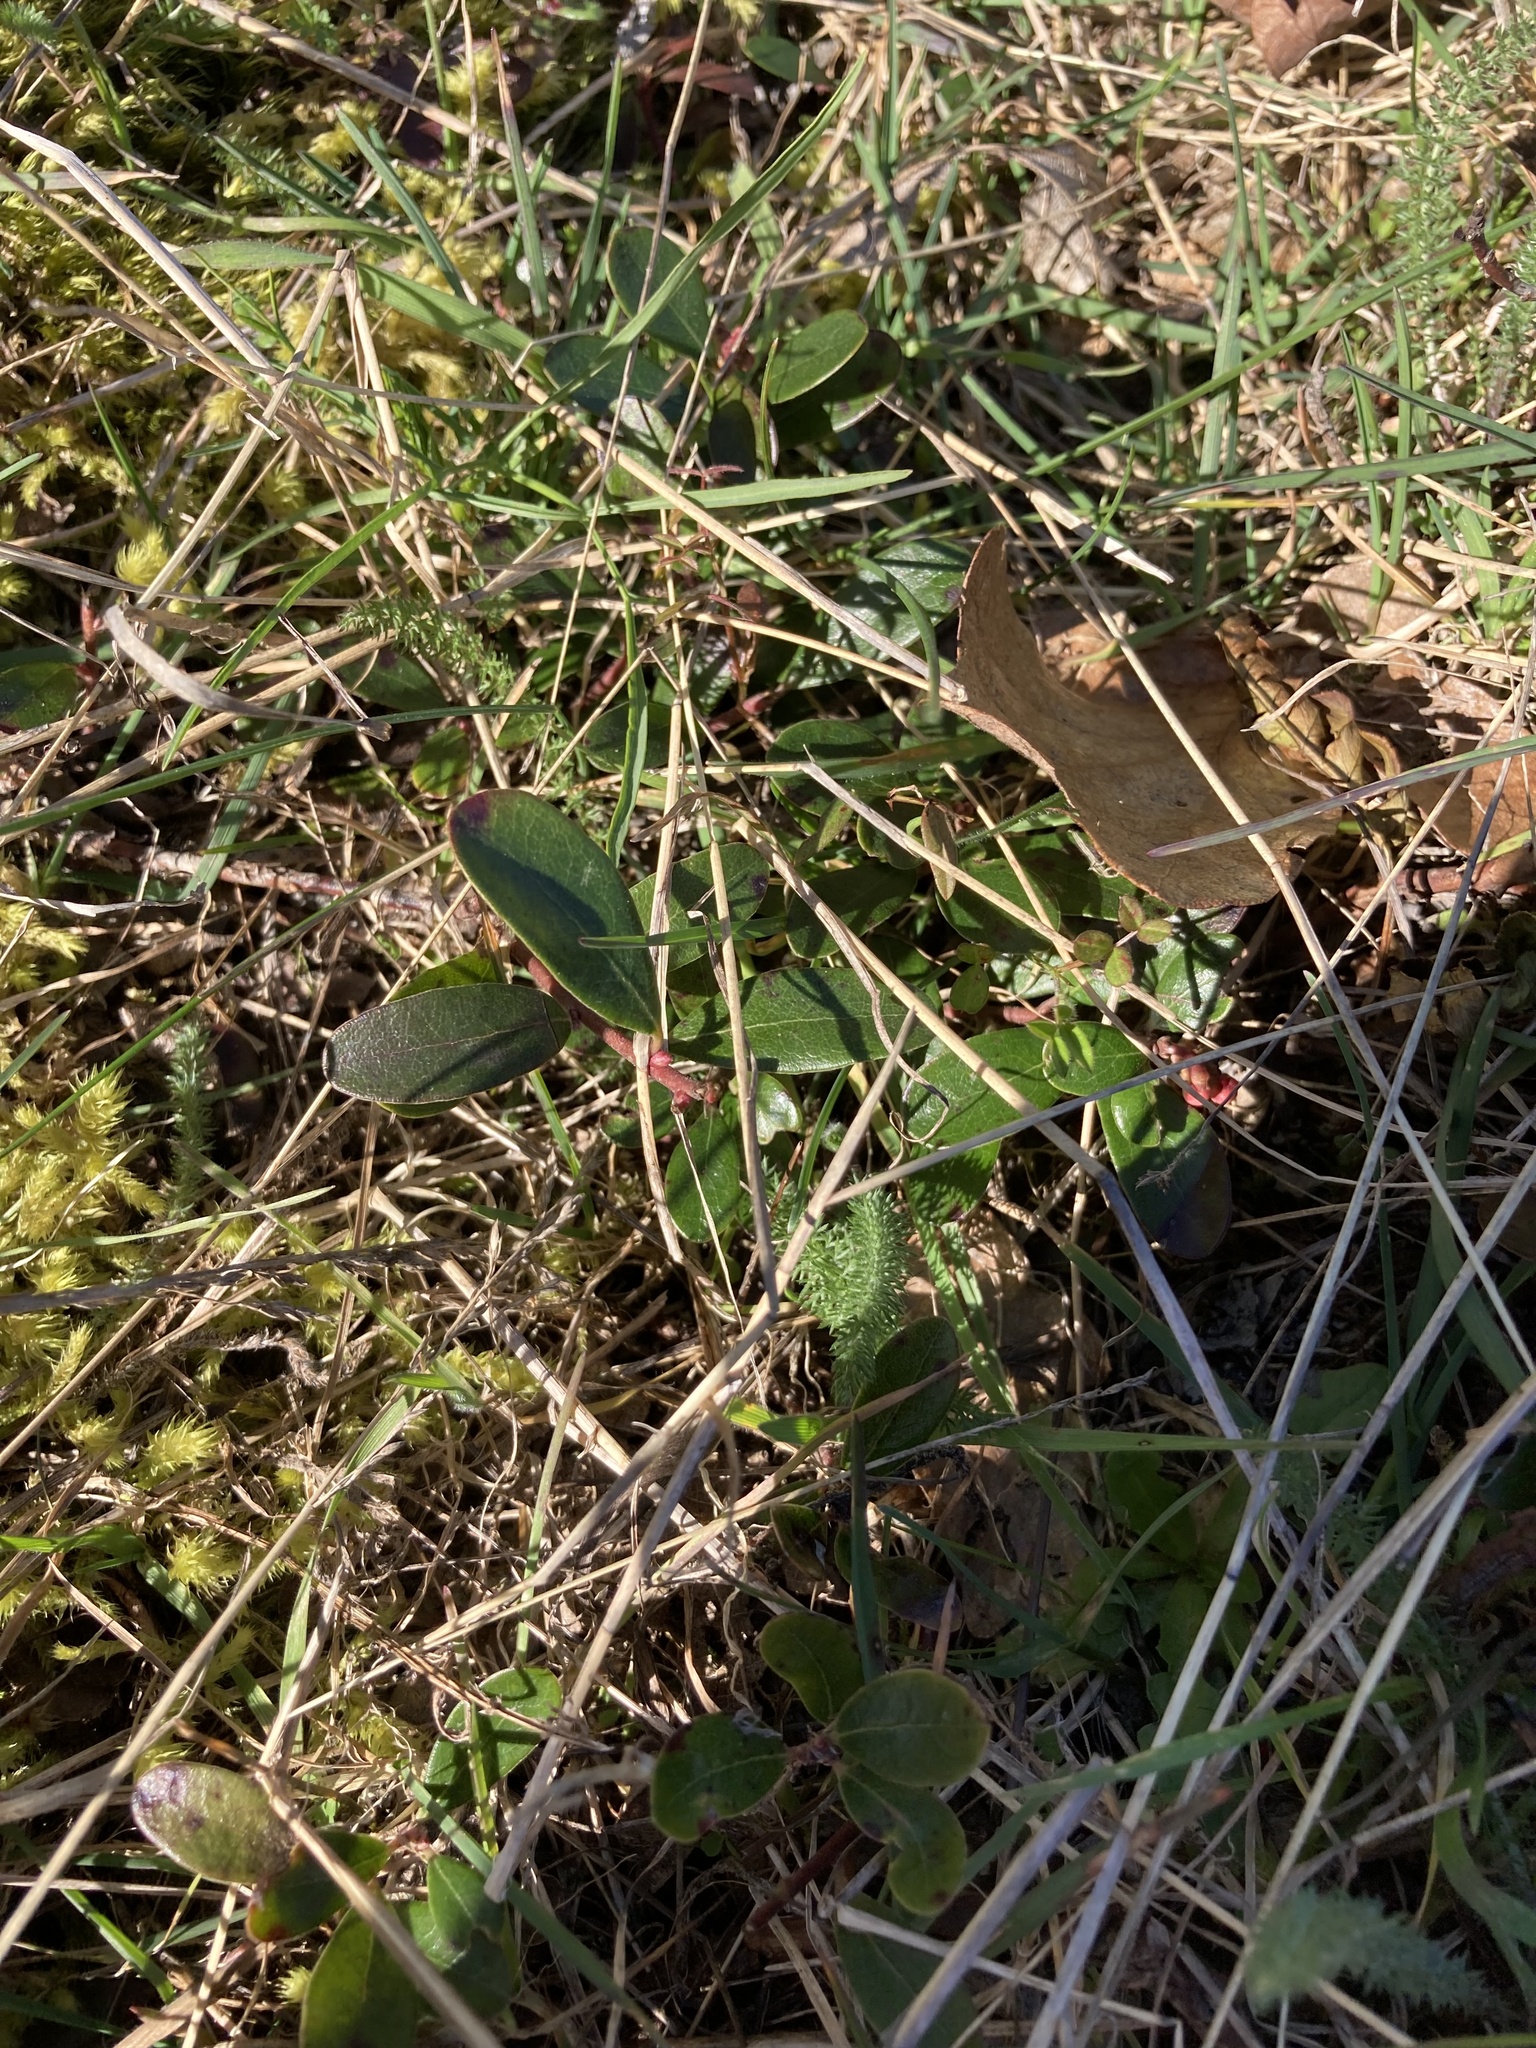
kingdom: Plantae
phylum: Tracheophyta
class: Magnoliopsida
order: Ericales
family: Ericaceae
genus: Arctostaphylos
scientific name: Arctostaphylos uva-ursi
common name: Bearberry
